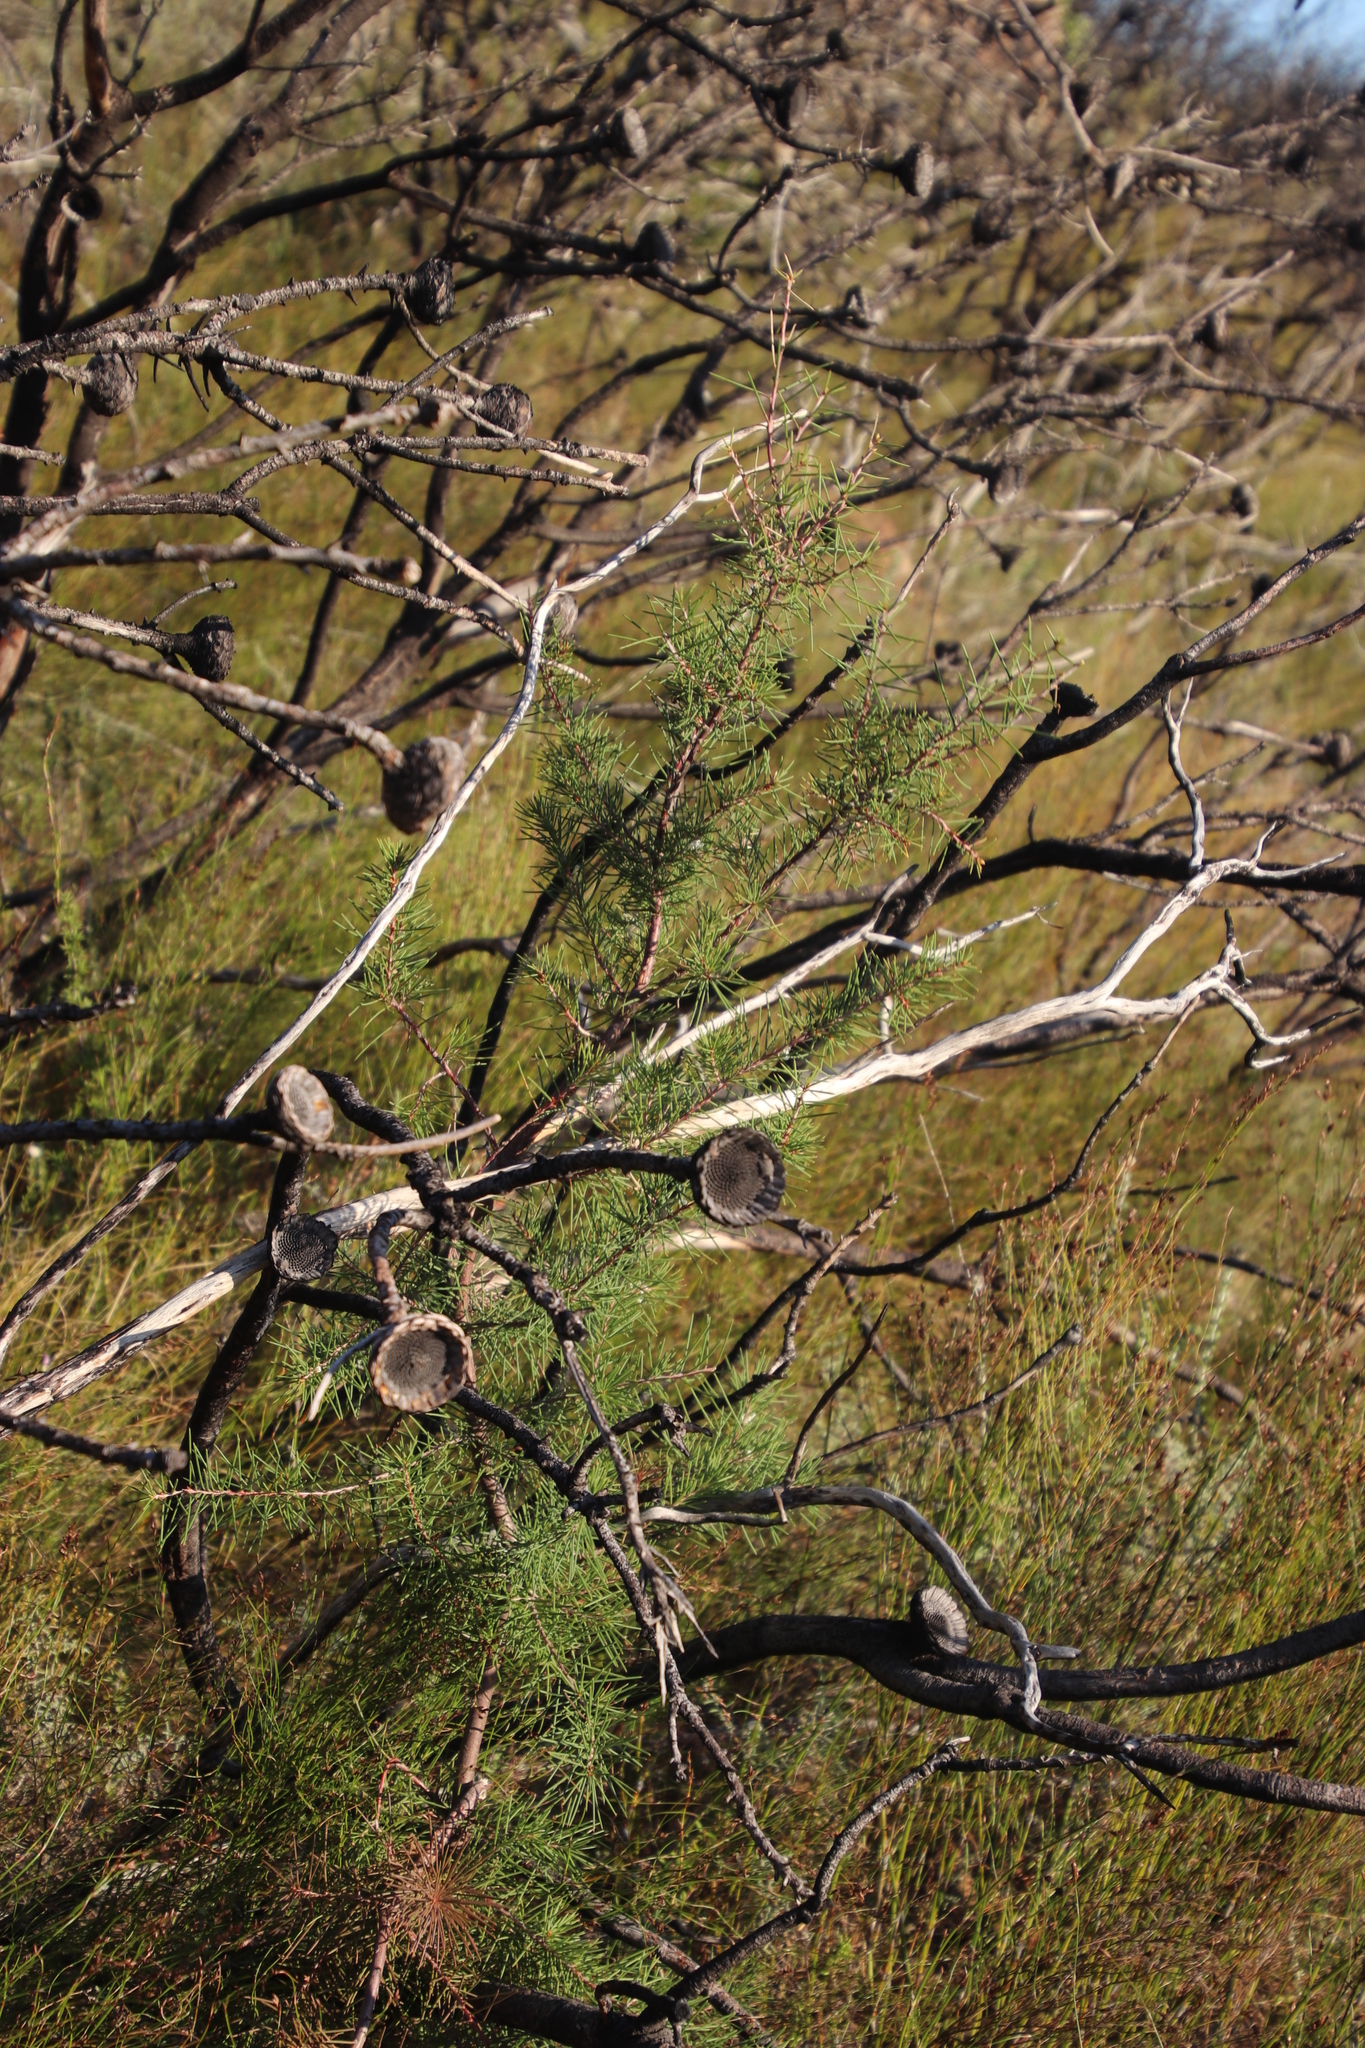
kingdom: Plantae
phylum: Tracheophyta
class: Magnoliopsida
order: Proteales
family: Proteaceae
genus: Hakea
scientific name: Hakea sericea
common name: Needle bush
